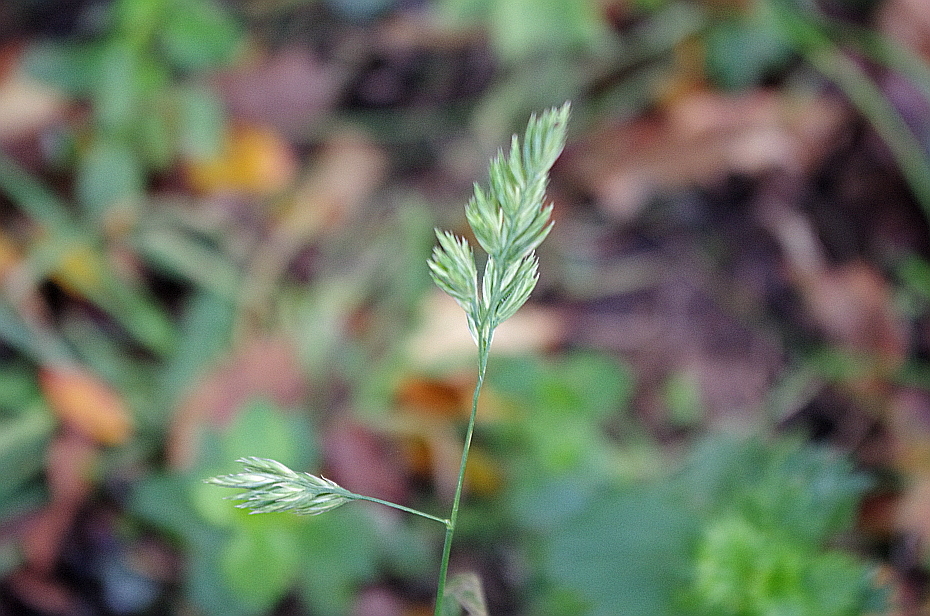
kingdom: Plantae
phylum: Tracheophyta
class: Liliopsida
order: Poales
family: Poaceae
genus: Dactylis
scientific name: Dactylis glomerata
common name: Orchardgrass
